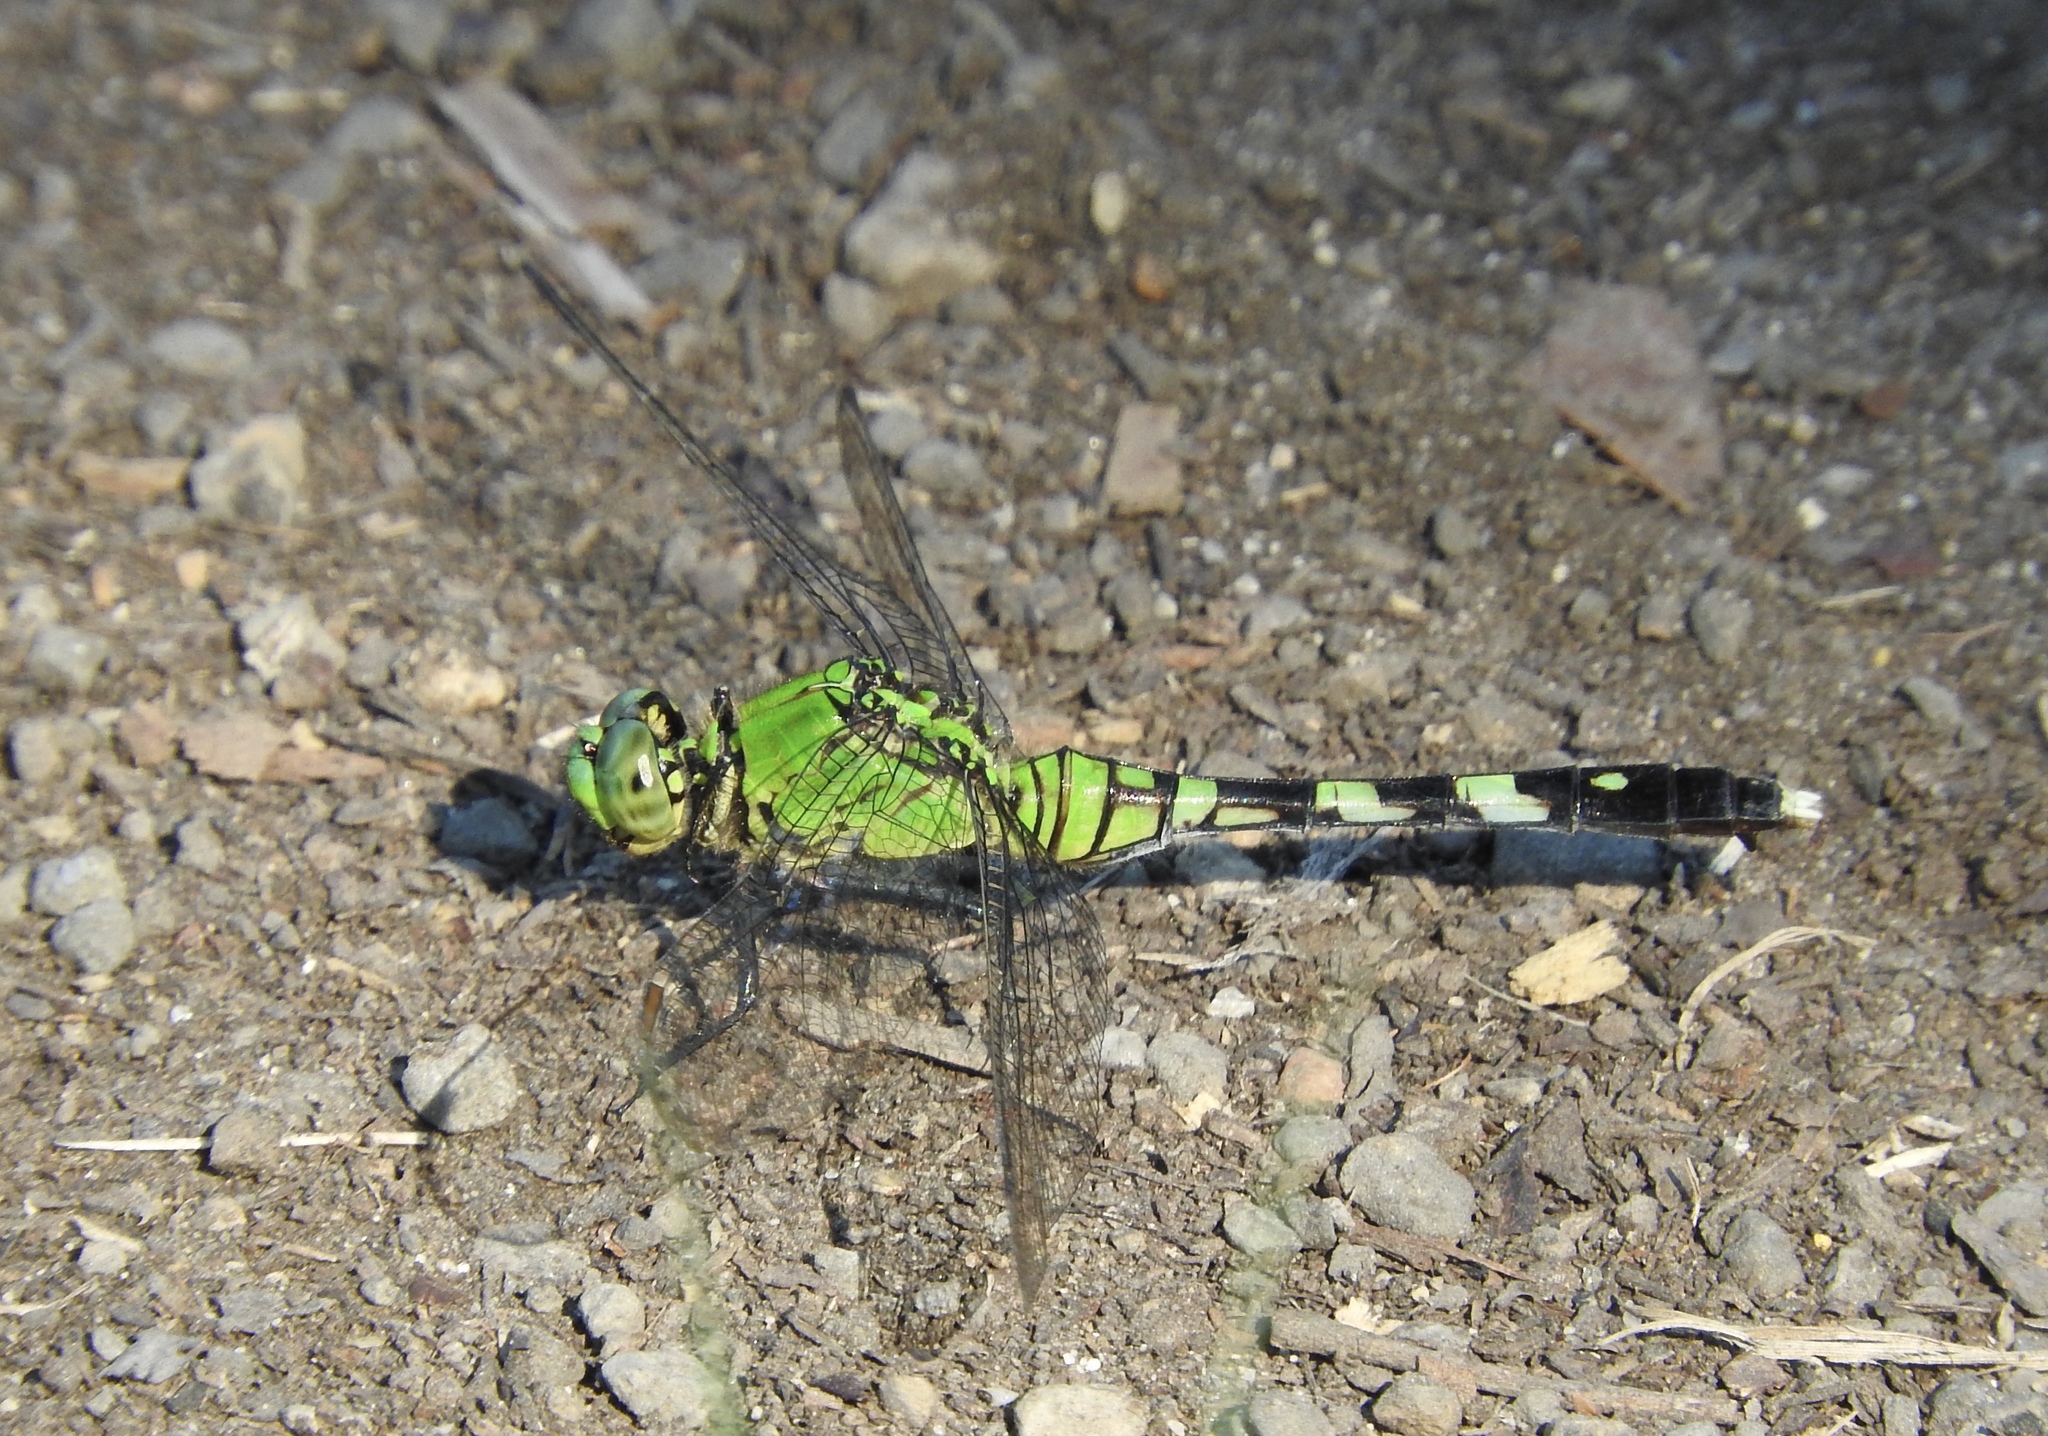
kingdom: Animalia
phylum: Arthropoda
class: Insecta
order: Odonata
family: Libellulidae
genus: Erythemis
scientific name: Erythemis simplicicollis
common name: Eastern pondhawk
